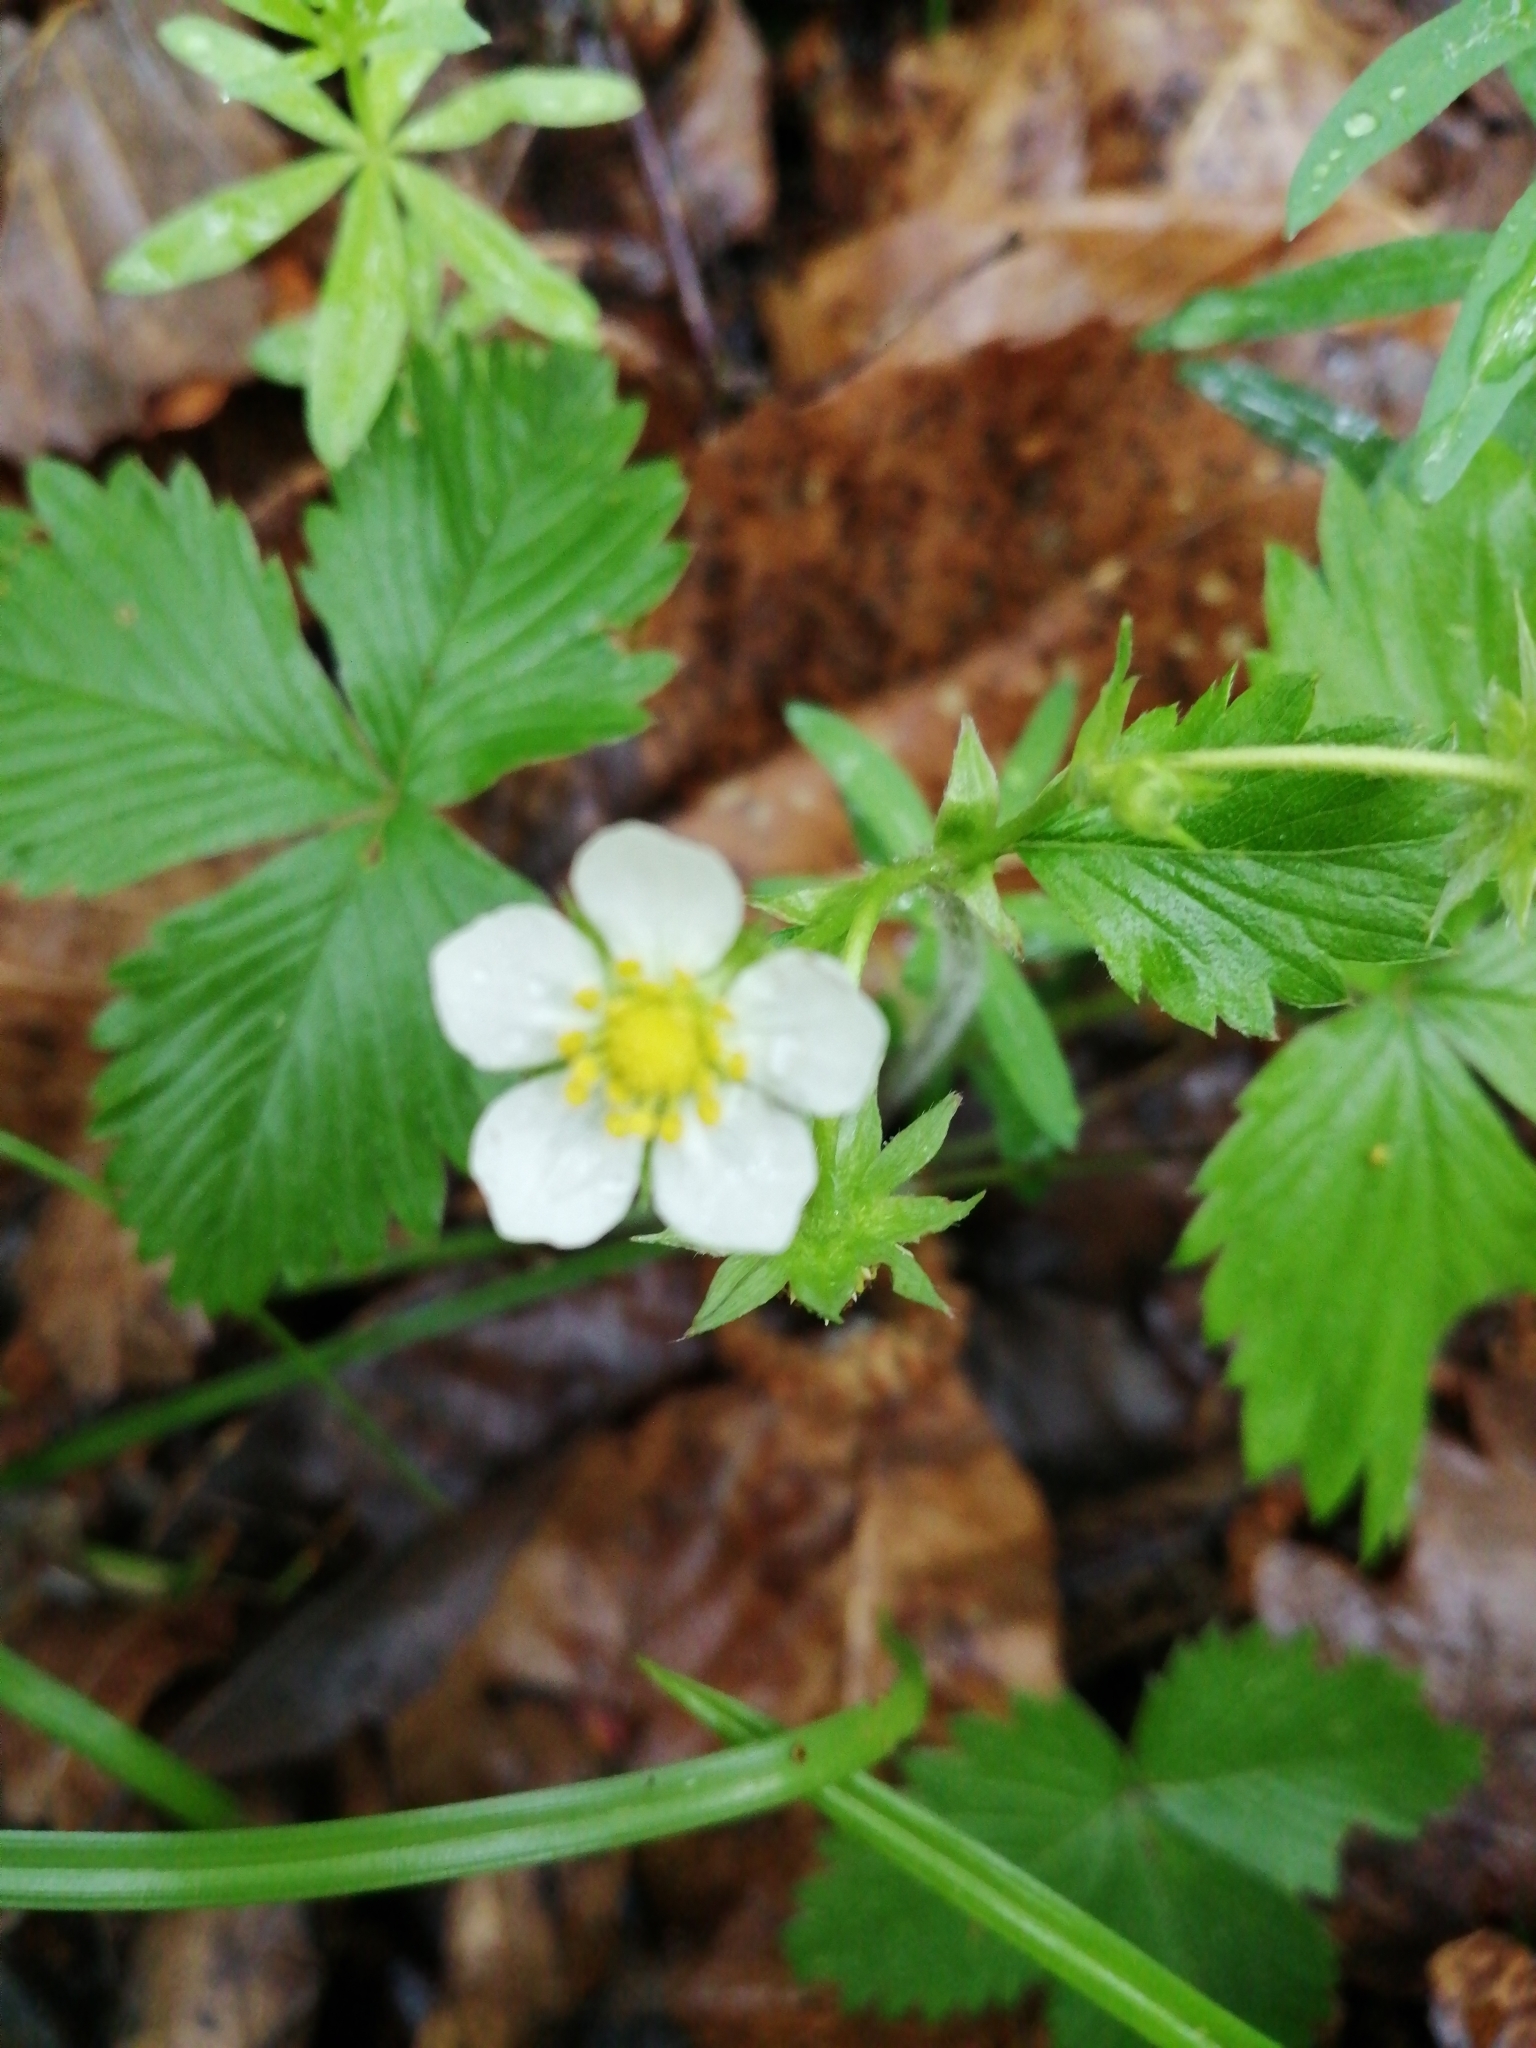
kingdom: Plantae
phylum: Tracheophyta
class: Magnoliopsida
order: Rosales
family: Rosaceae
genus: Fragaria
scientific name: Fragaria vesca
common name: Wild strawberry
